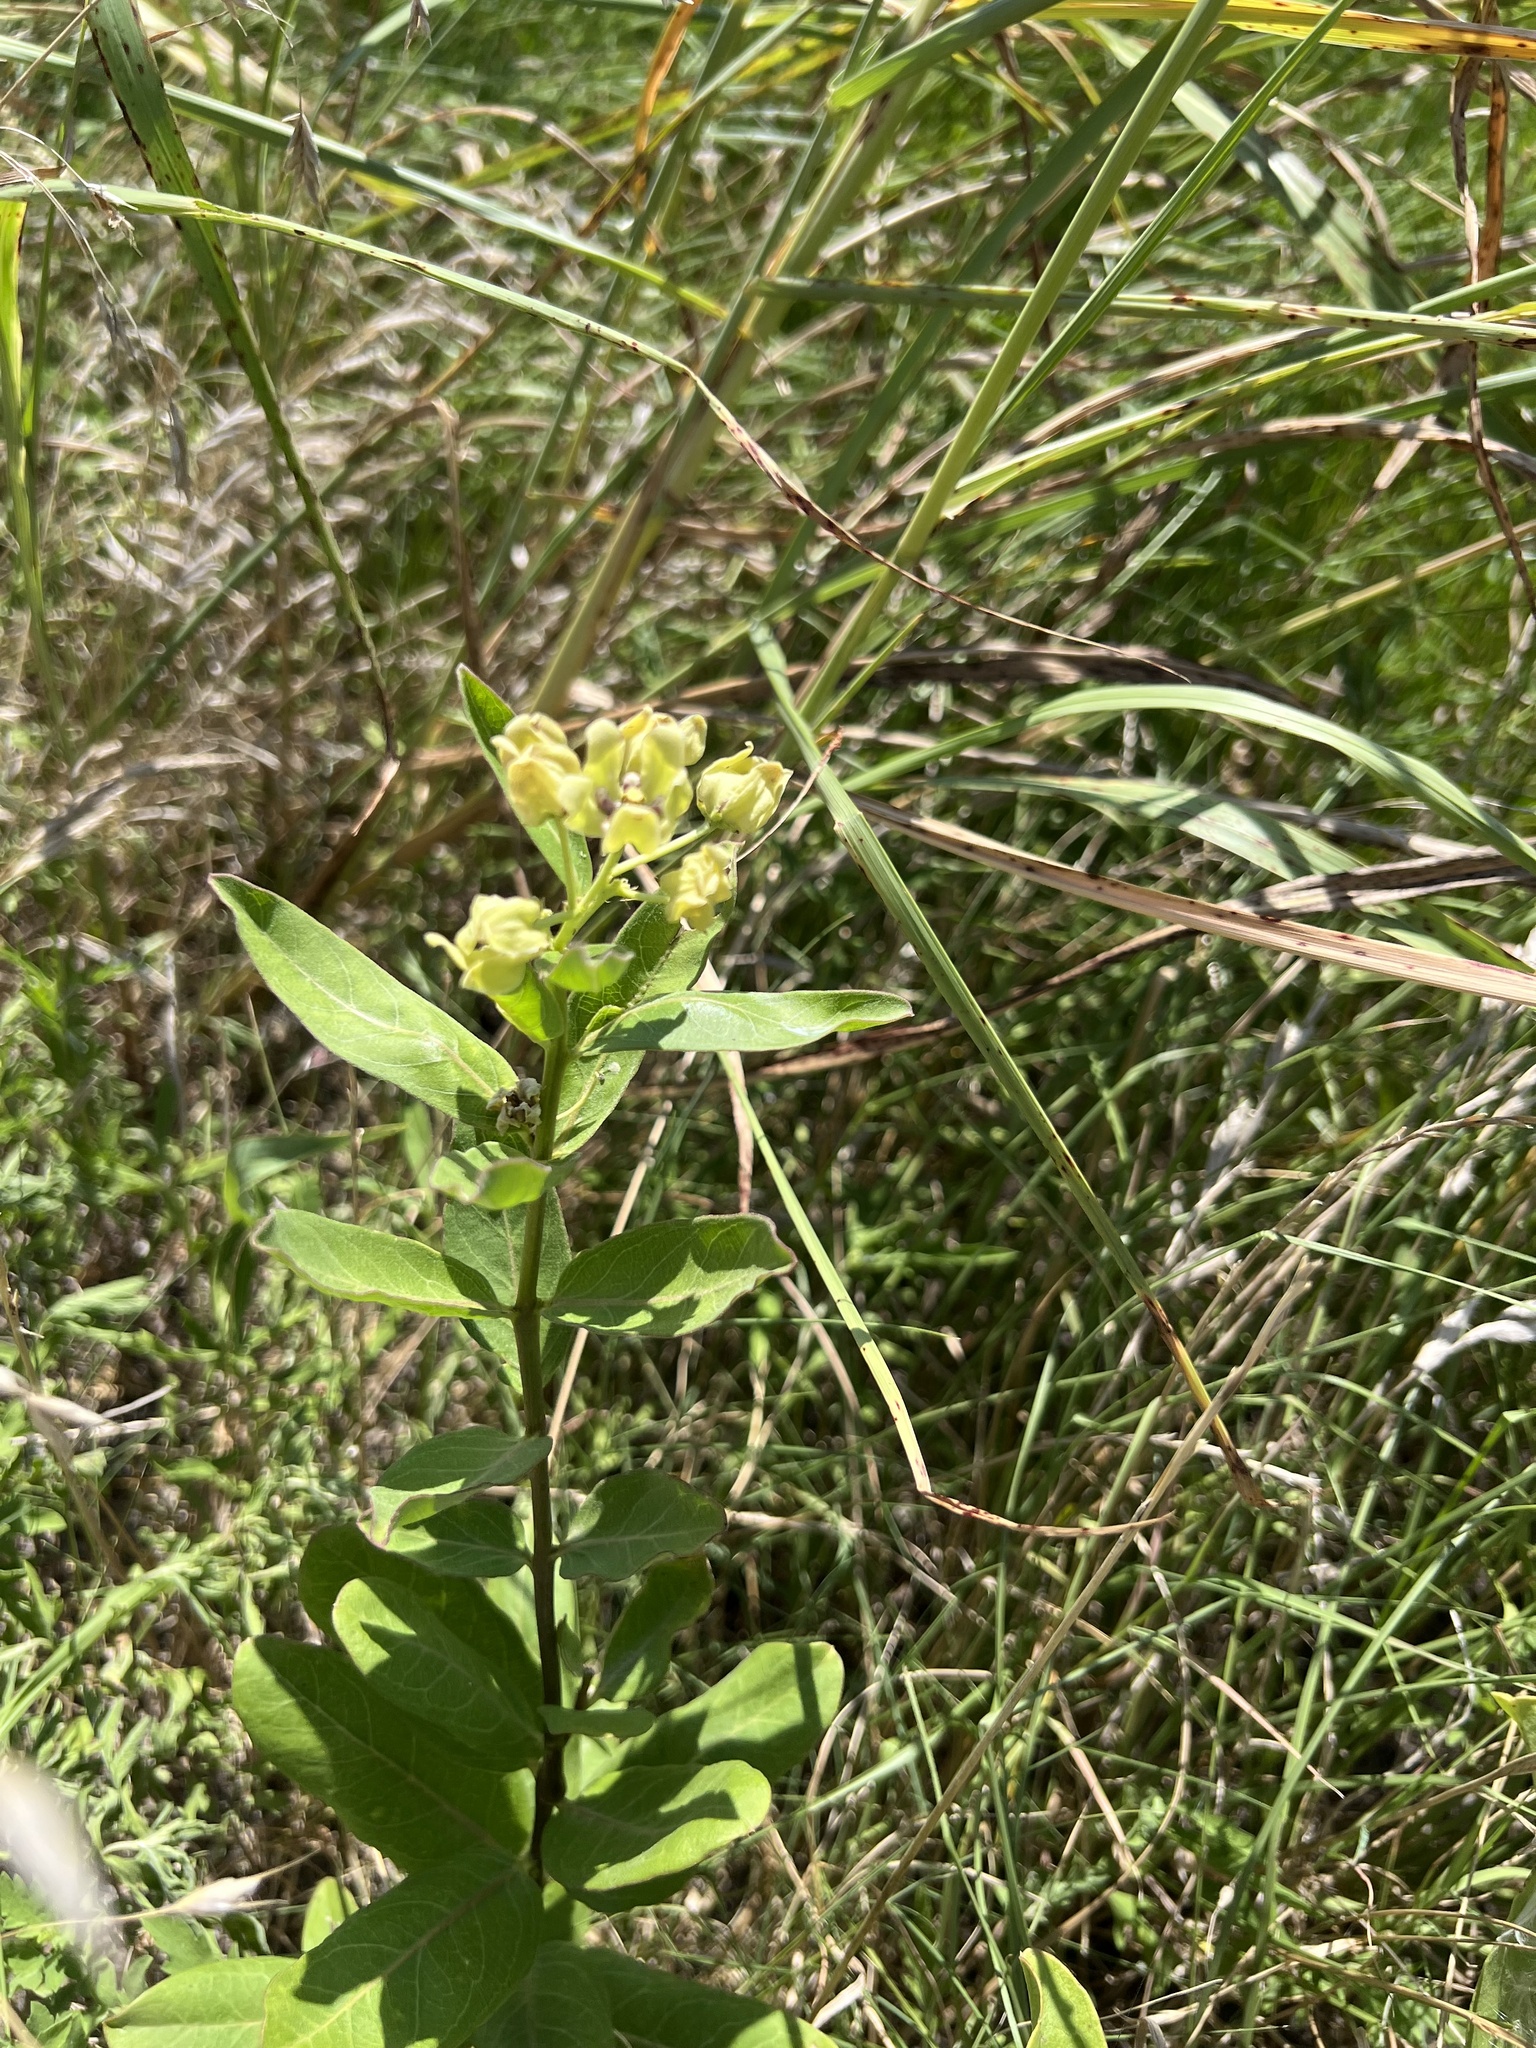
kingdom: Plantae
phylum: Tracheophyta
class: Magnoliopsida
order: Gentianales
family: Apocynaceae
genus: Asclepias
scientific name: Asclepias viridis
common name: Antelope-horns
